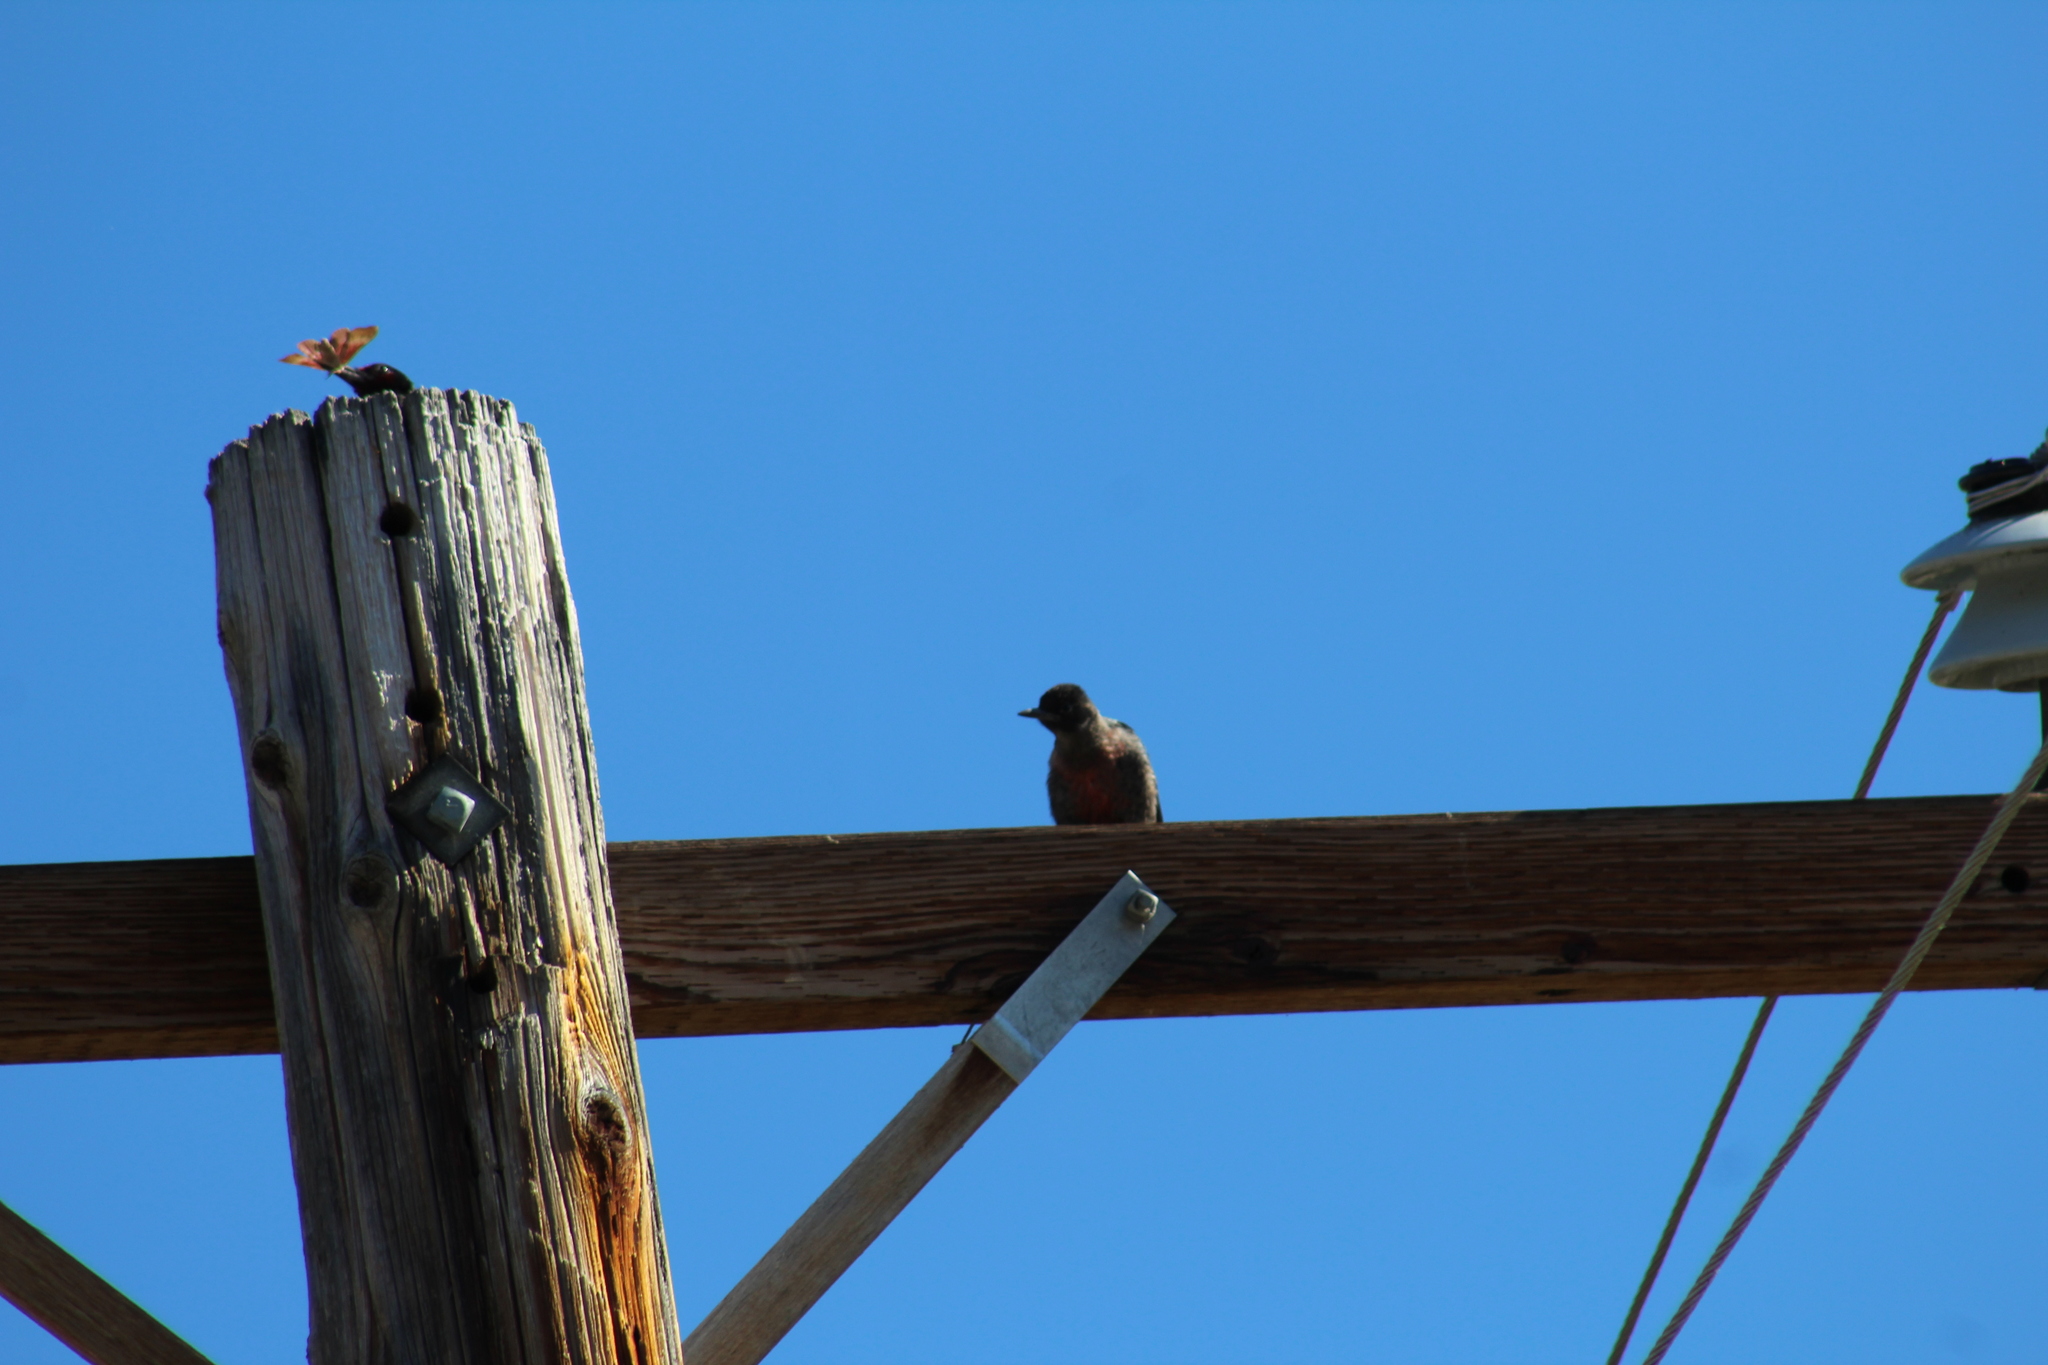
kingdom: Animalia
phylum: Chordata
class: Aves
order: Piciformes
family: Picidae
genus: Melanerpes
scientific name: Melanerpes lewis
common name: Lewis's woodpecker
